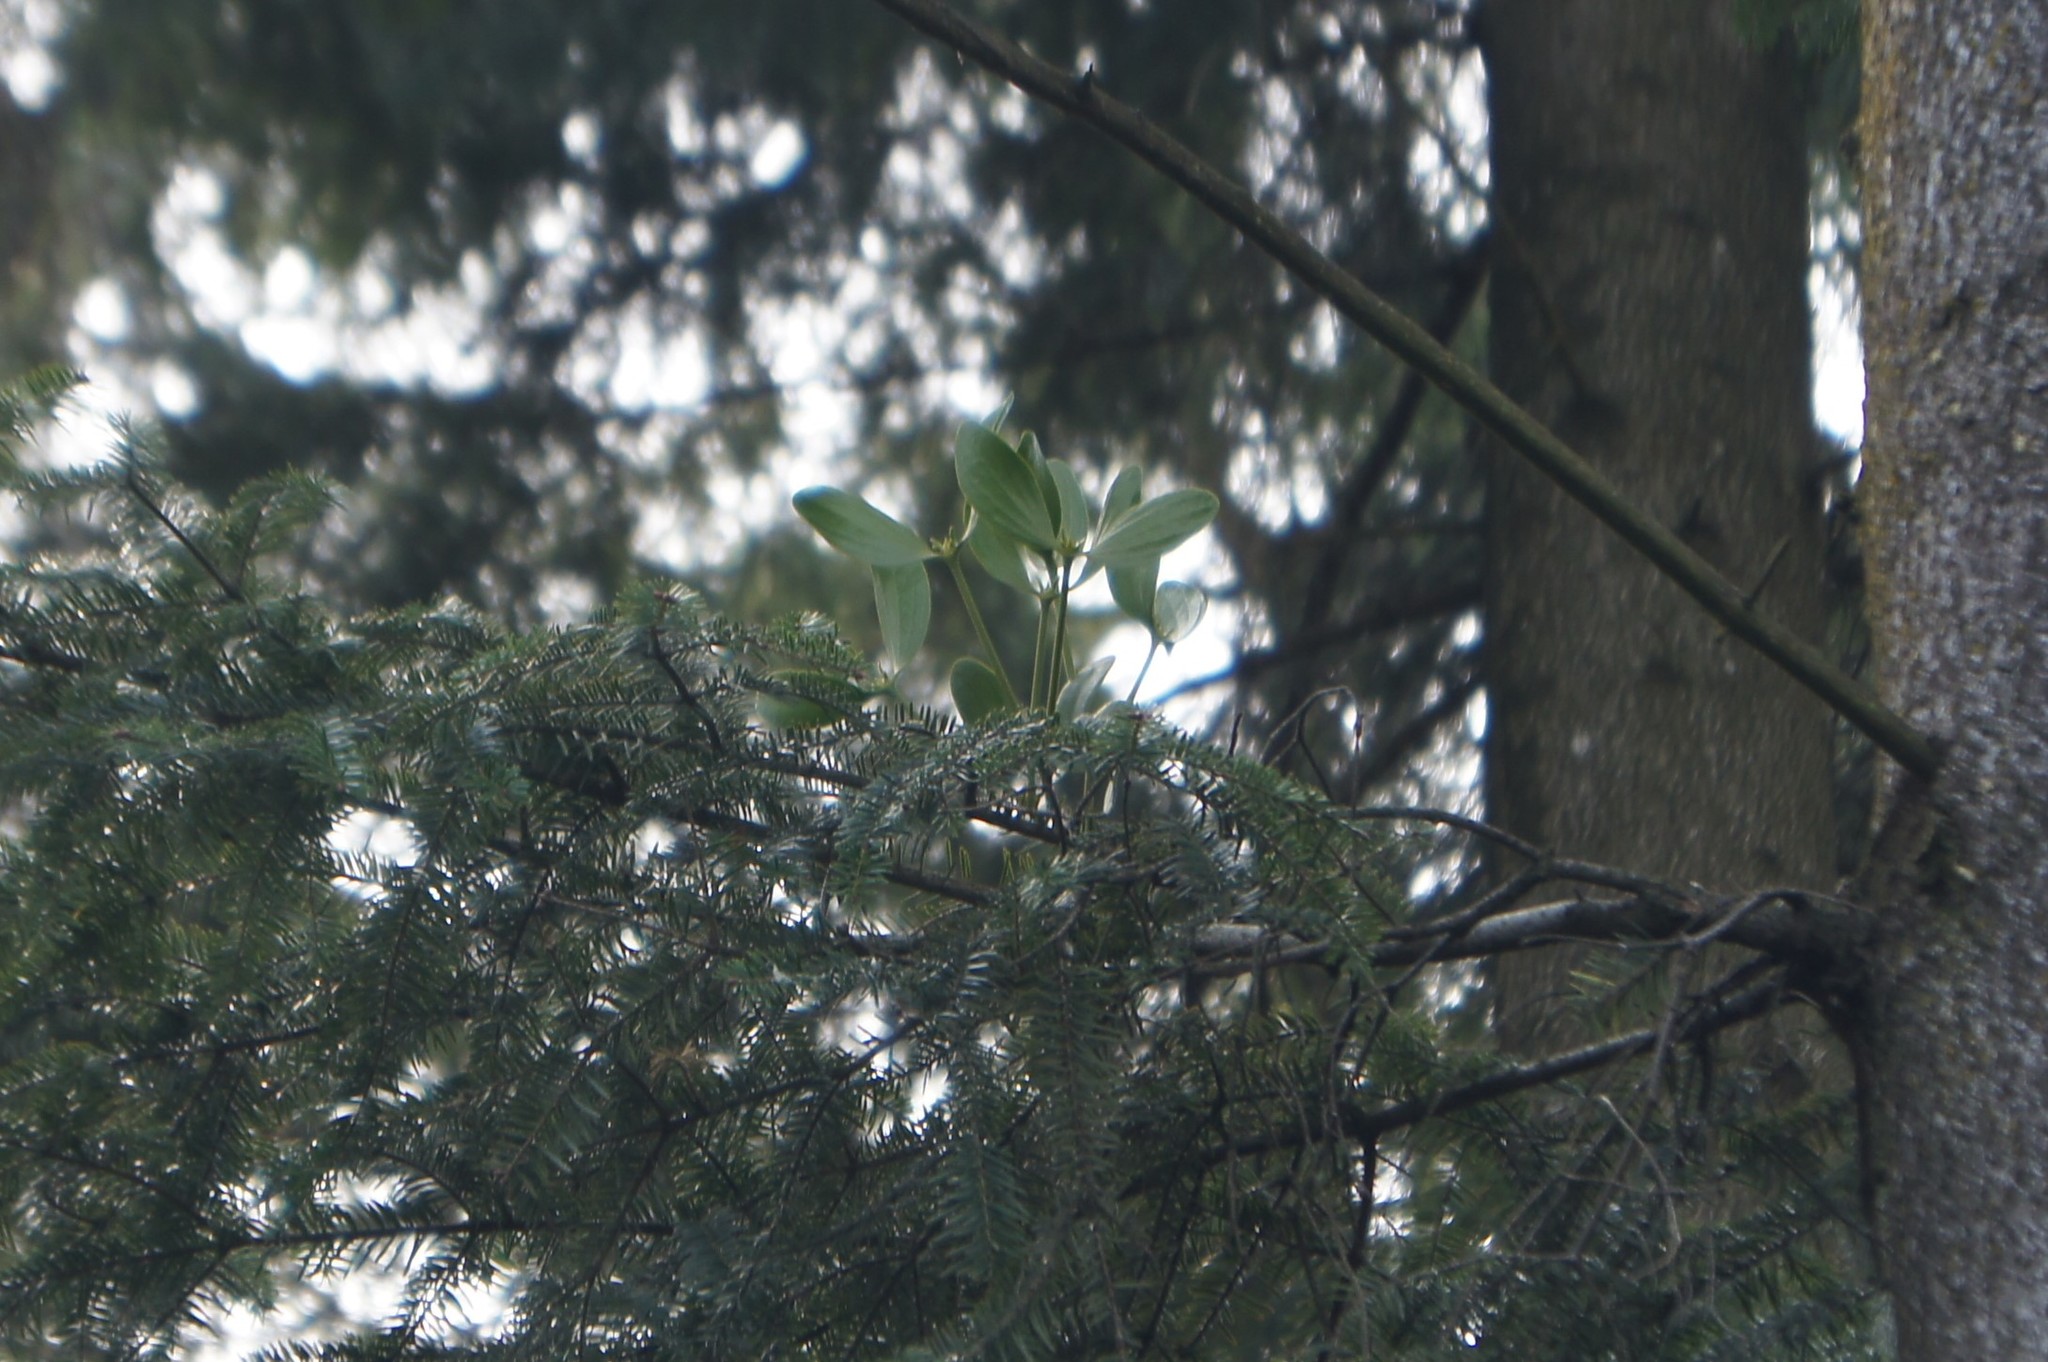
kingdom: Plantae
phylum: Tracheophyta
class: Magnoliopsida
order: Santalales
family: Viscaceae
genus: Viscum
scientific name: Viscum album
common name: Mistletoe
